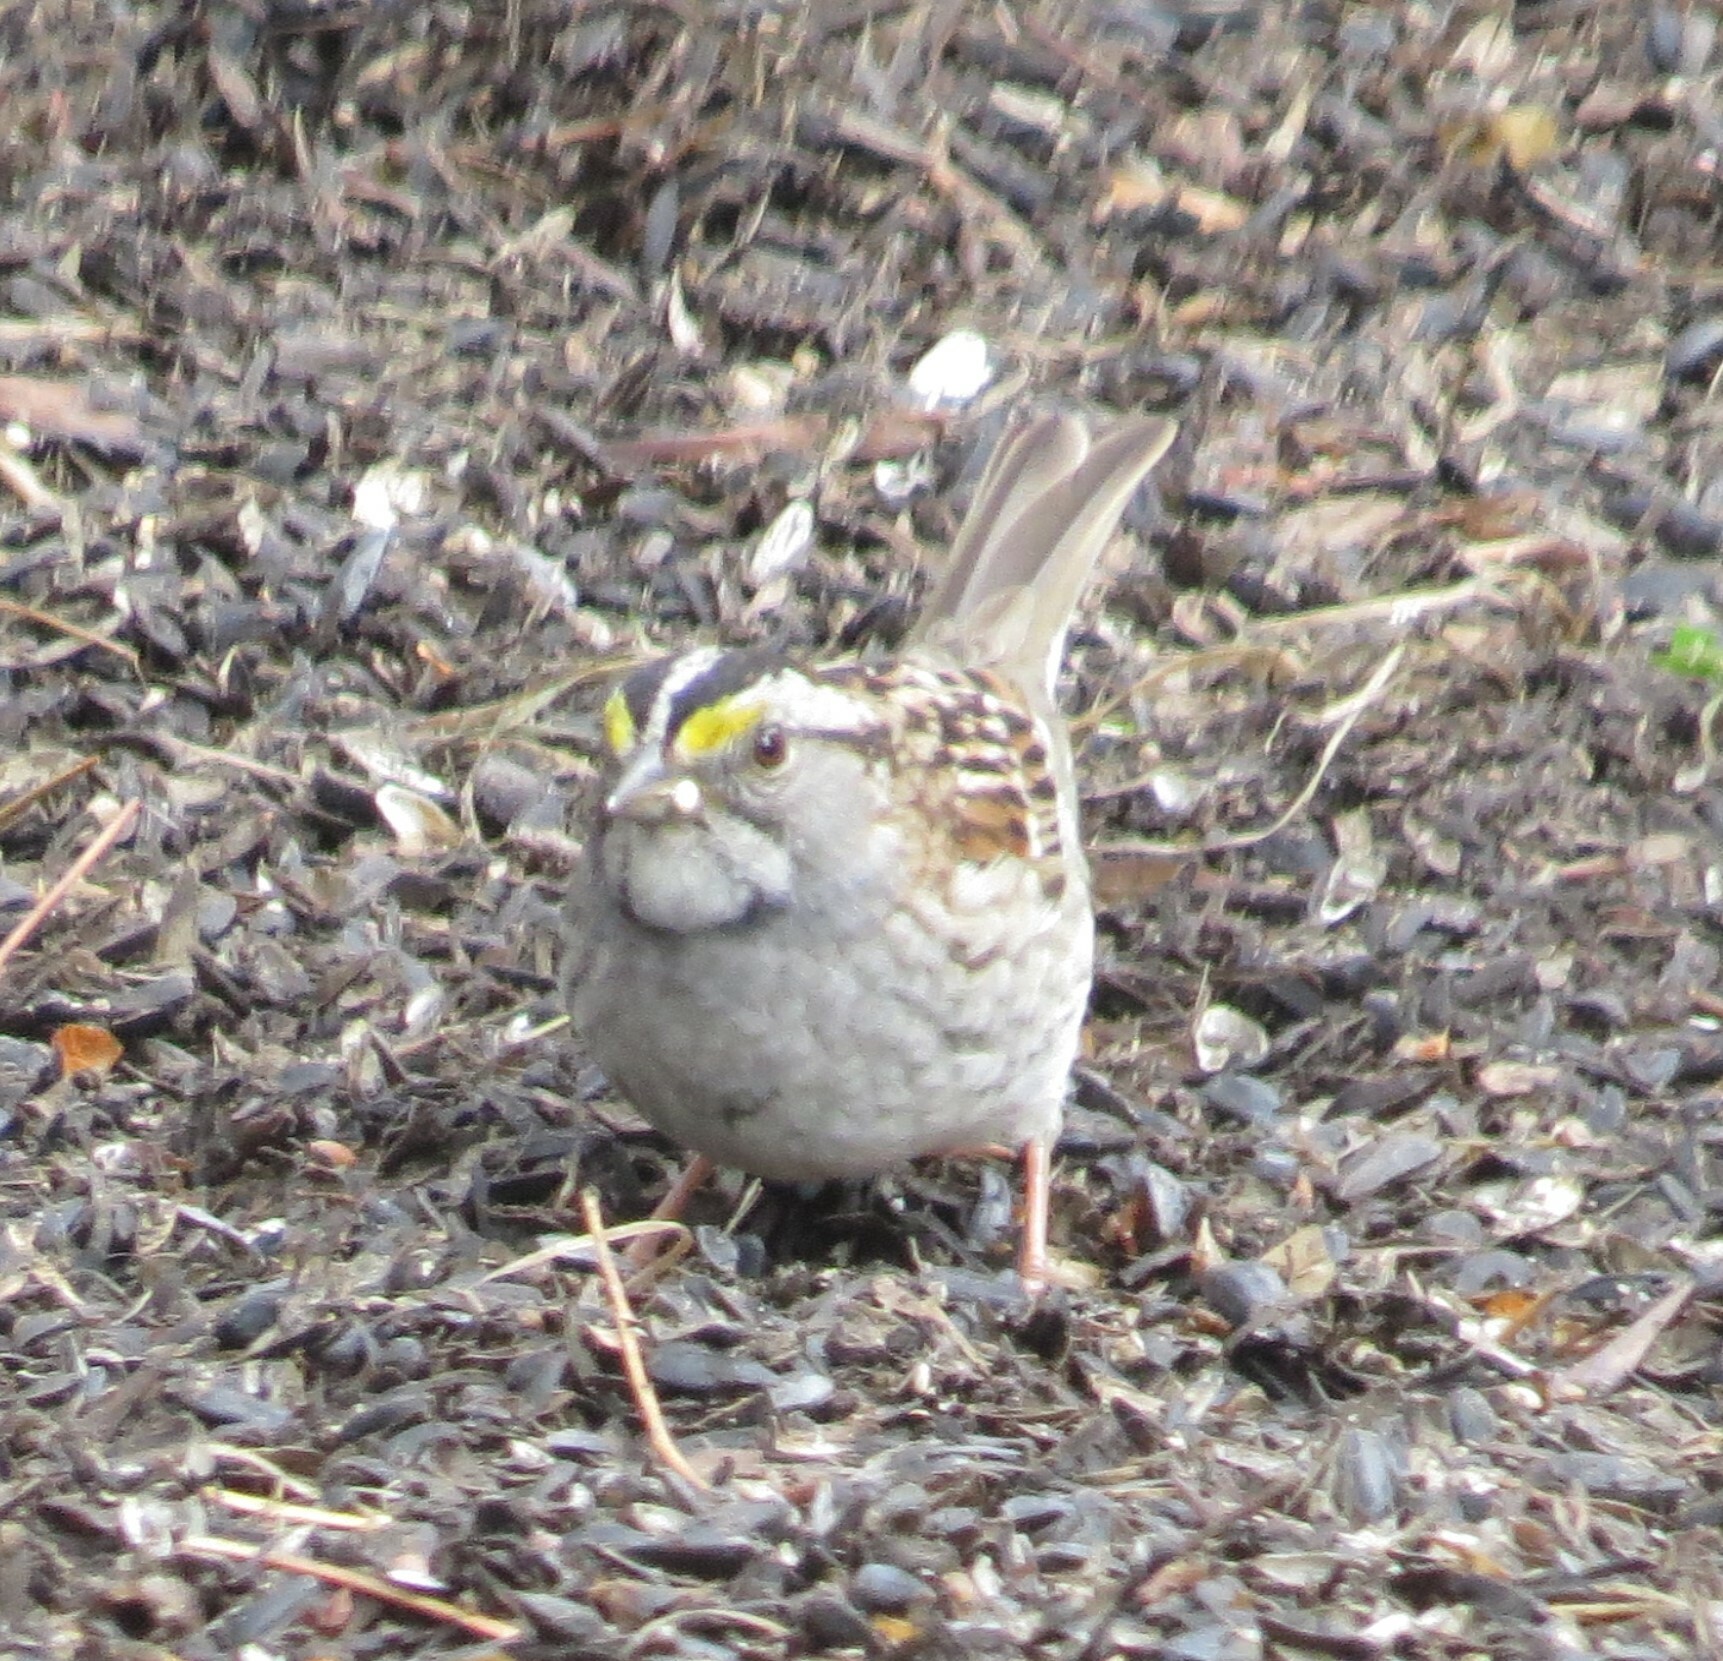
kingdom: Animalia
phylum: Chordata
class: Aves
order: Passeriformes
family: Passerellidae
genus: Zonotrichia
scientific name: Zonotrichia albicollis
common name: White-throated sparrow
